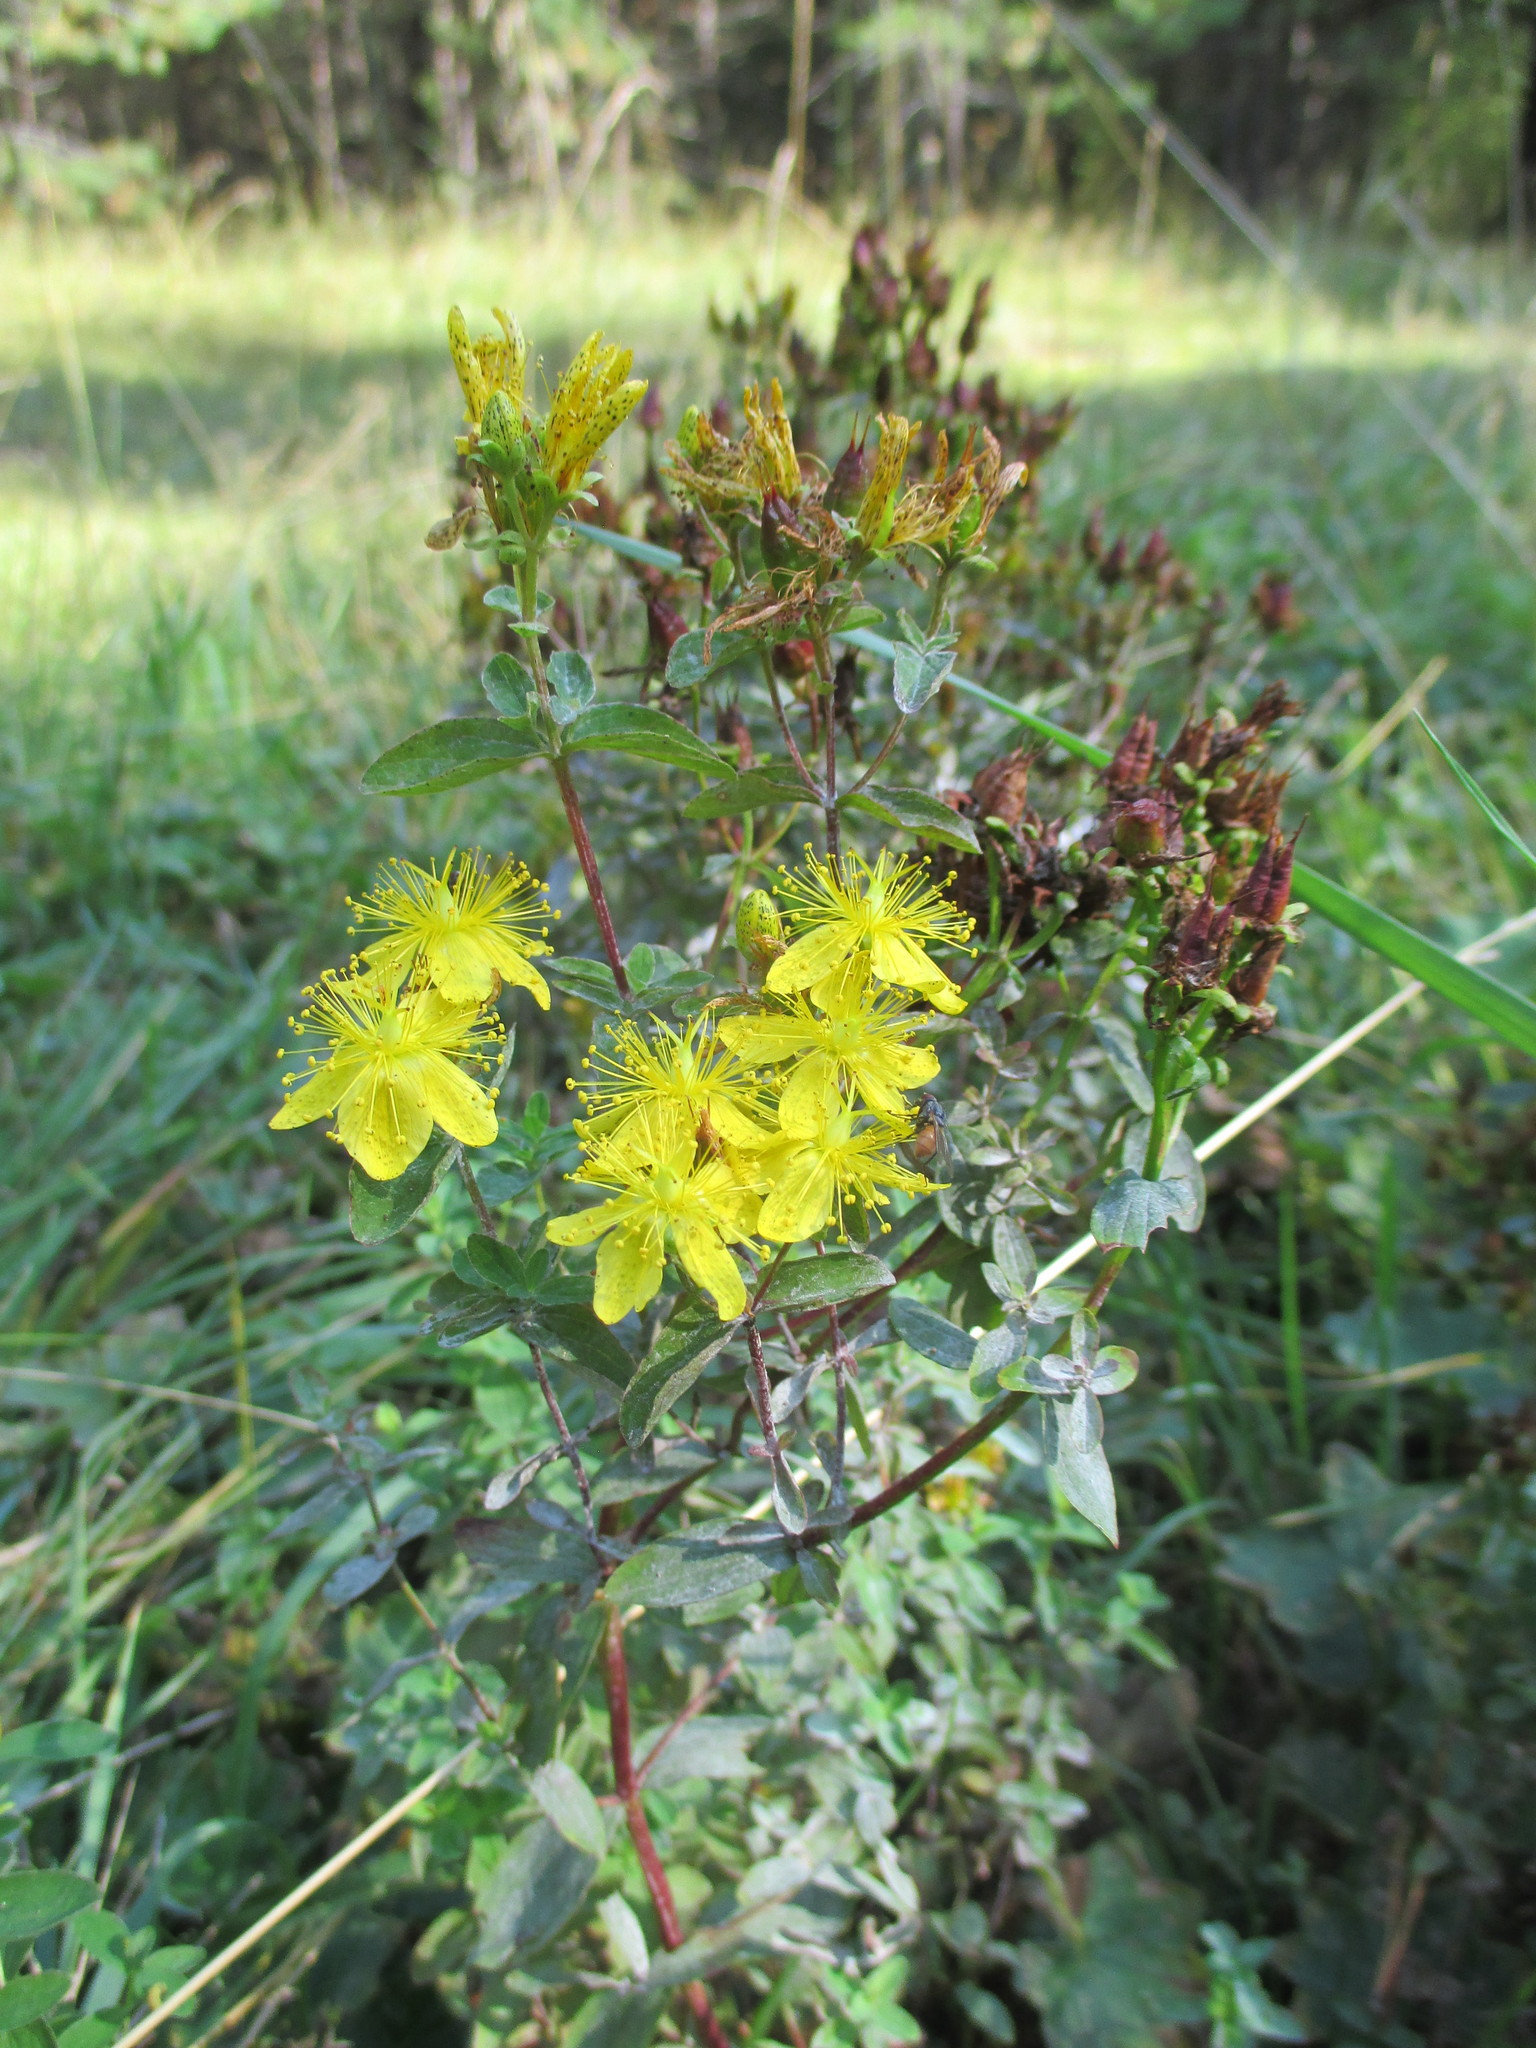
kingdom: Plantae
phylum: Tracheophyta
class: Magnoliopsida
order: Malpighiales
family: Hypericaceae
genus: Hypericum
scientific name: Hypericum maculatum
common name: Imperforate st. john's-wort
